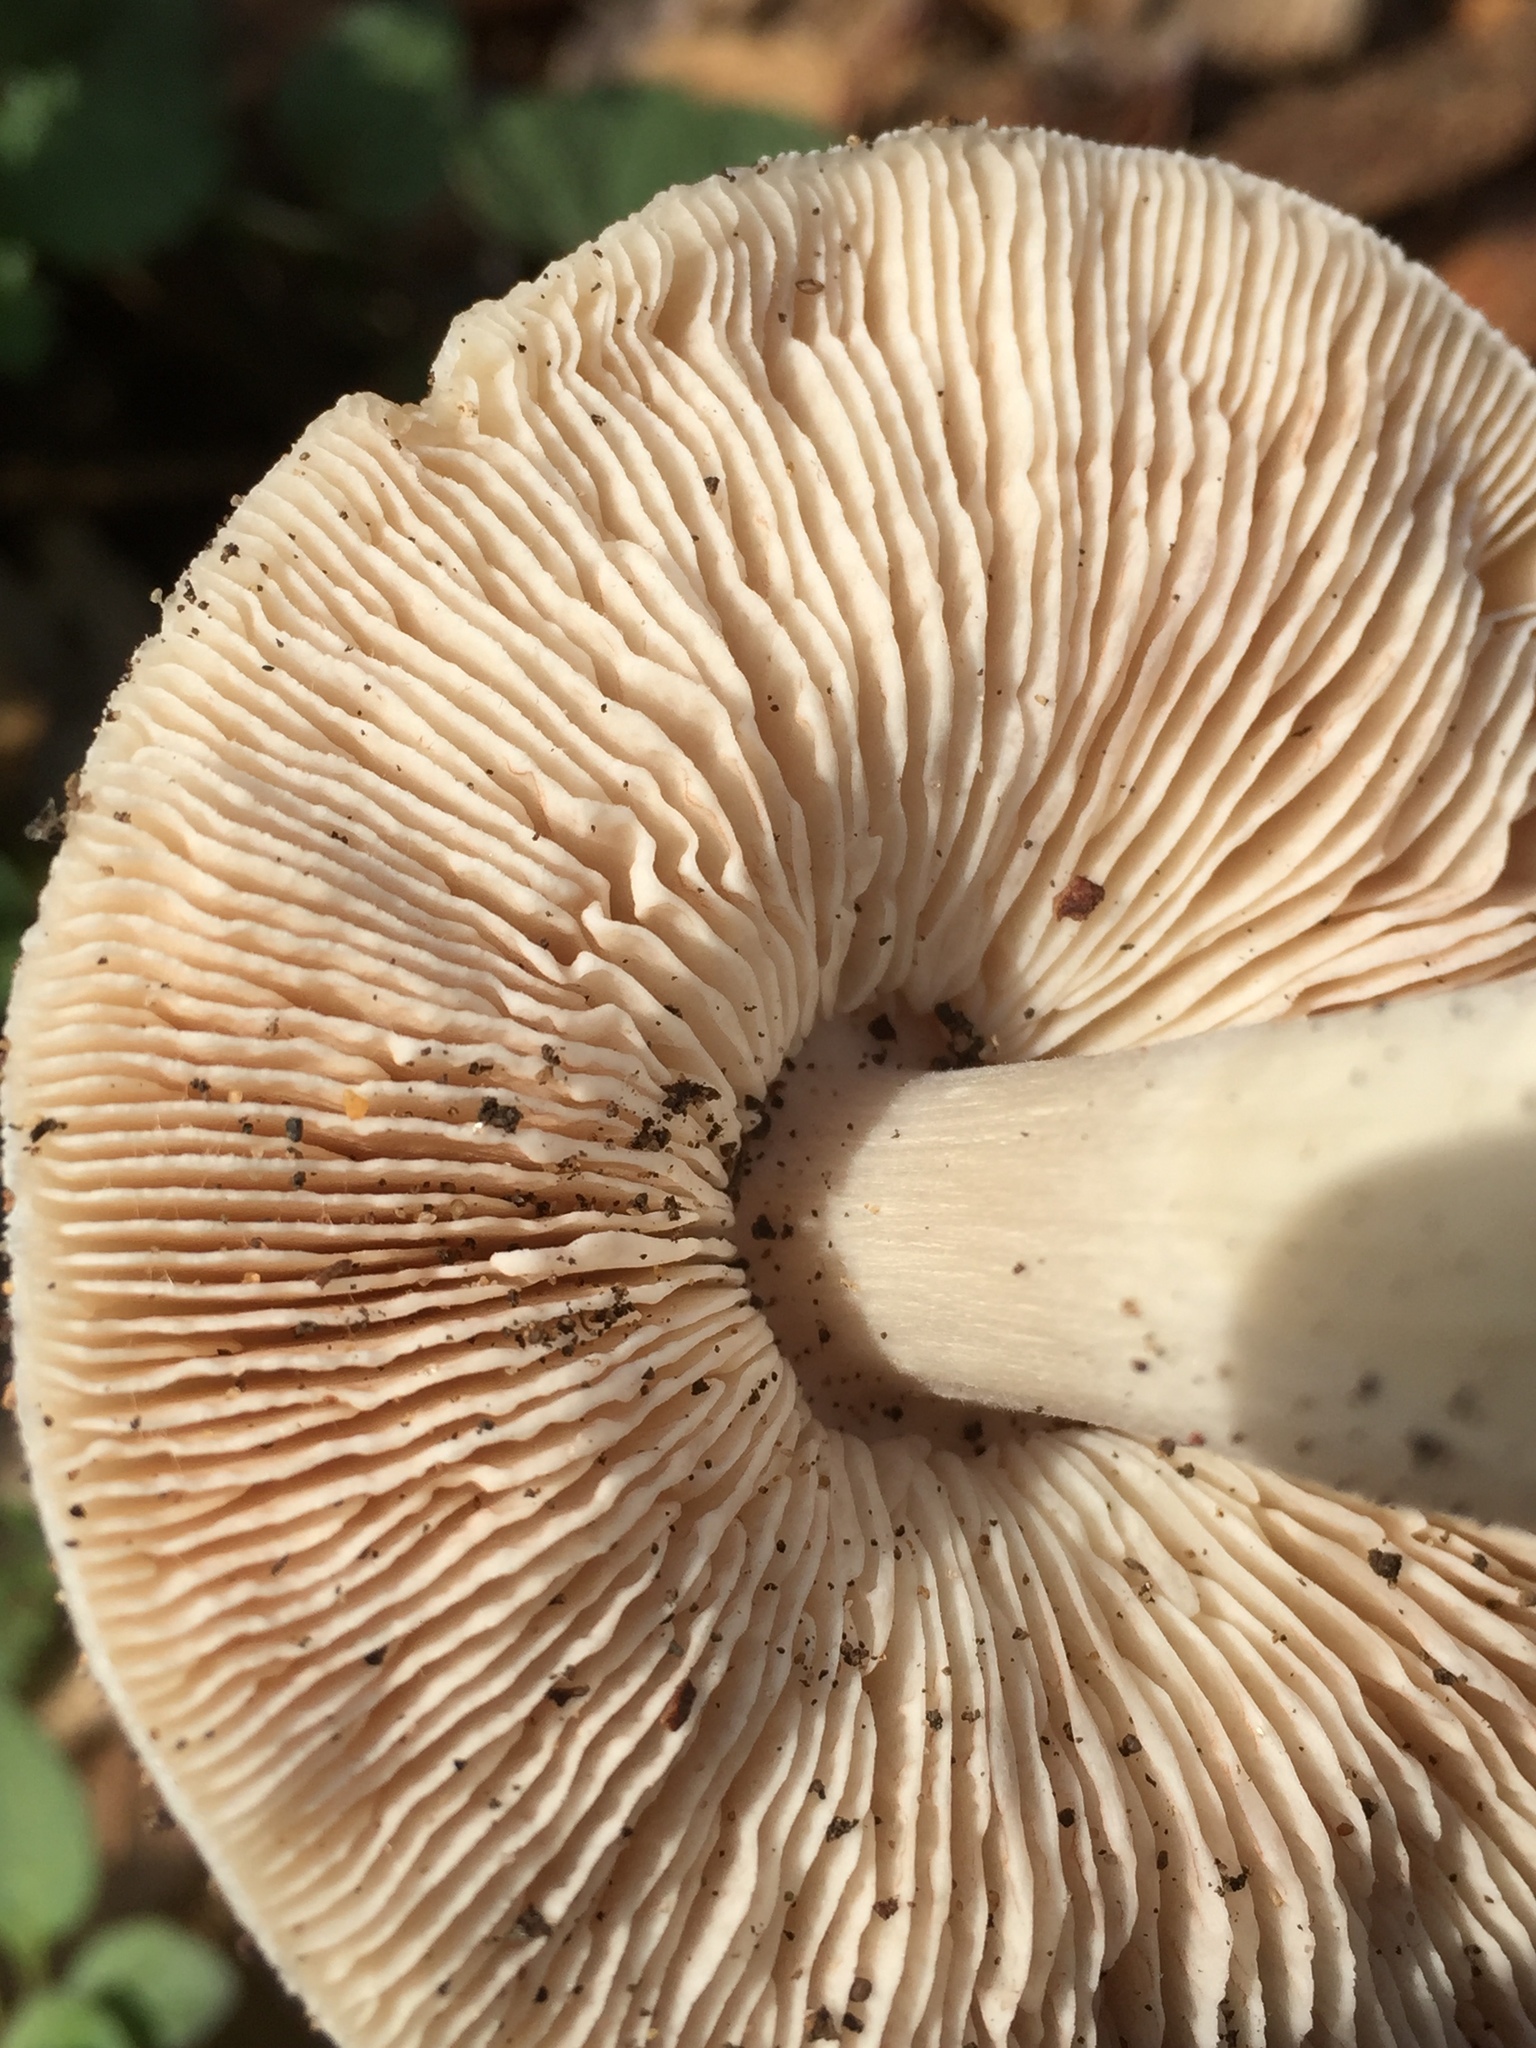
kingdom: Fungi
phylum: Basidiomycota
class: Agaricomycetes
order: Agaricales
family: Pluteaceae
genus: Volvopluteus
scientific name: Volvopluteus gloiocephalus
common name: Stubble rosegill
